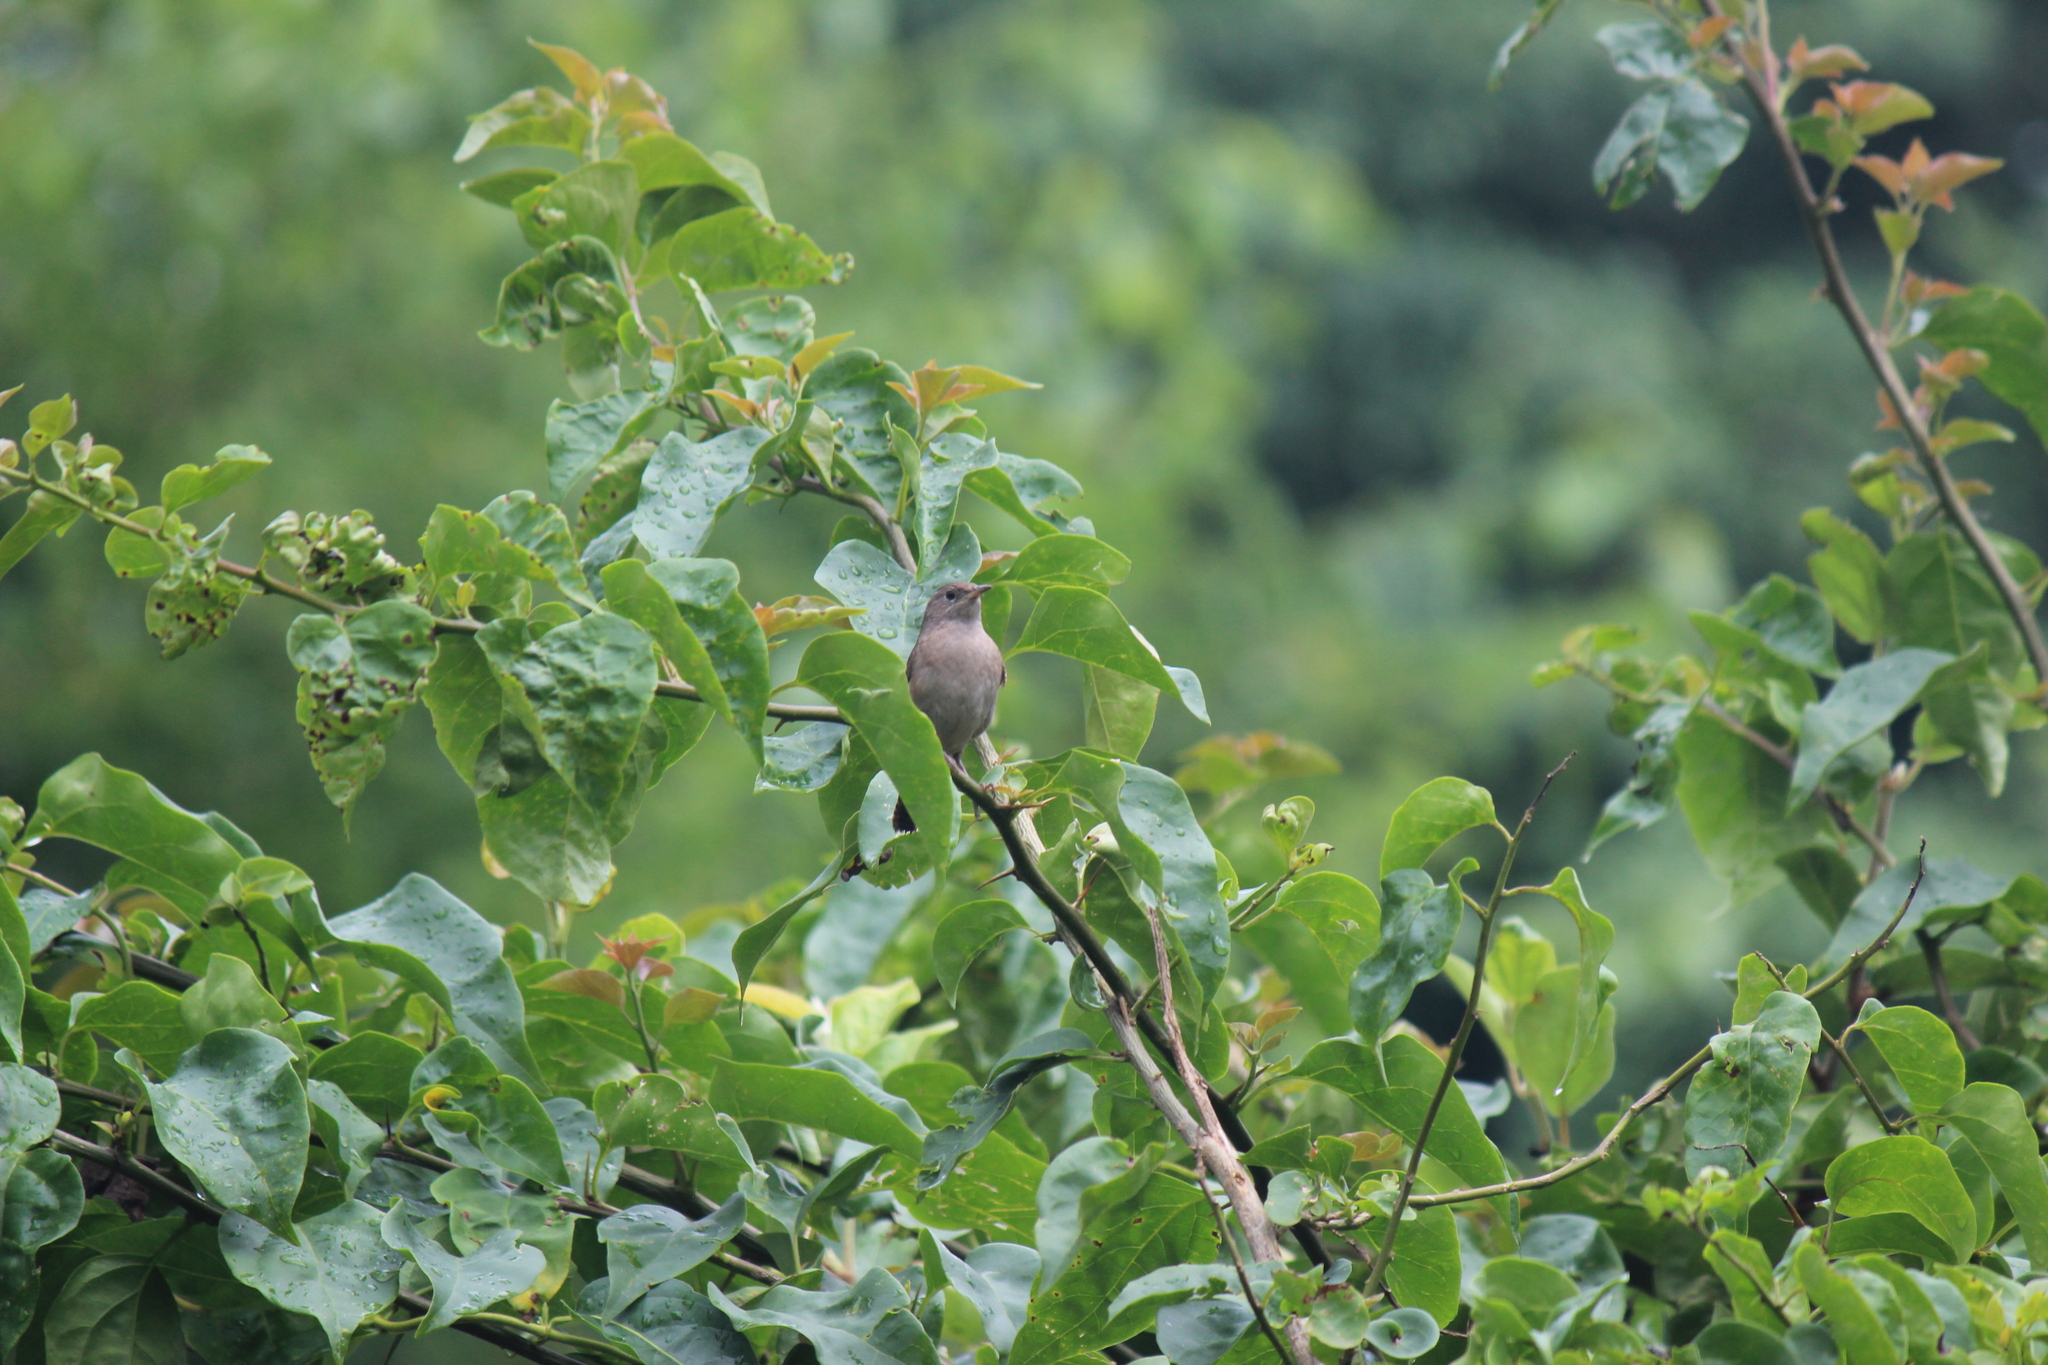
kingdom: Animalia
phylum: Chordata
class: Aves
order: Passeriformes
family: Troglodytidae
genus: Troglodytes
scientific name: Troglodytes aedon
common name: House wren
